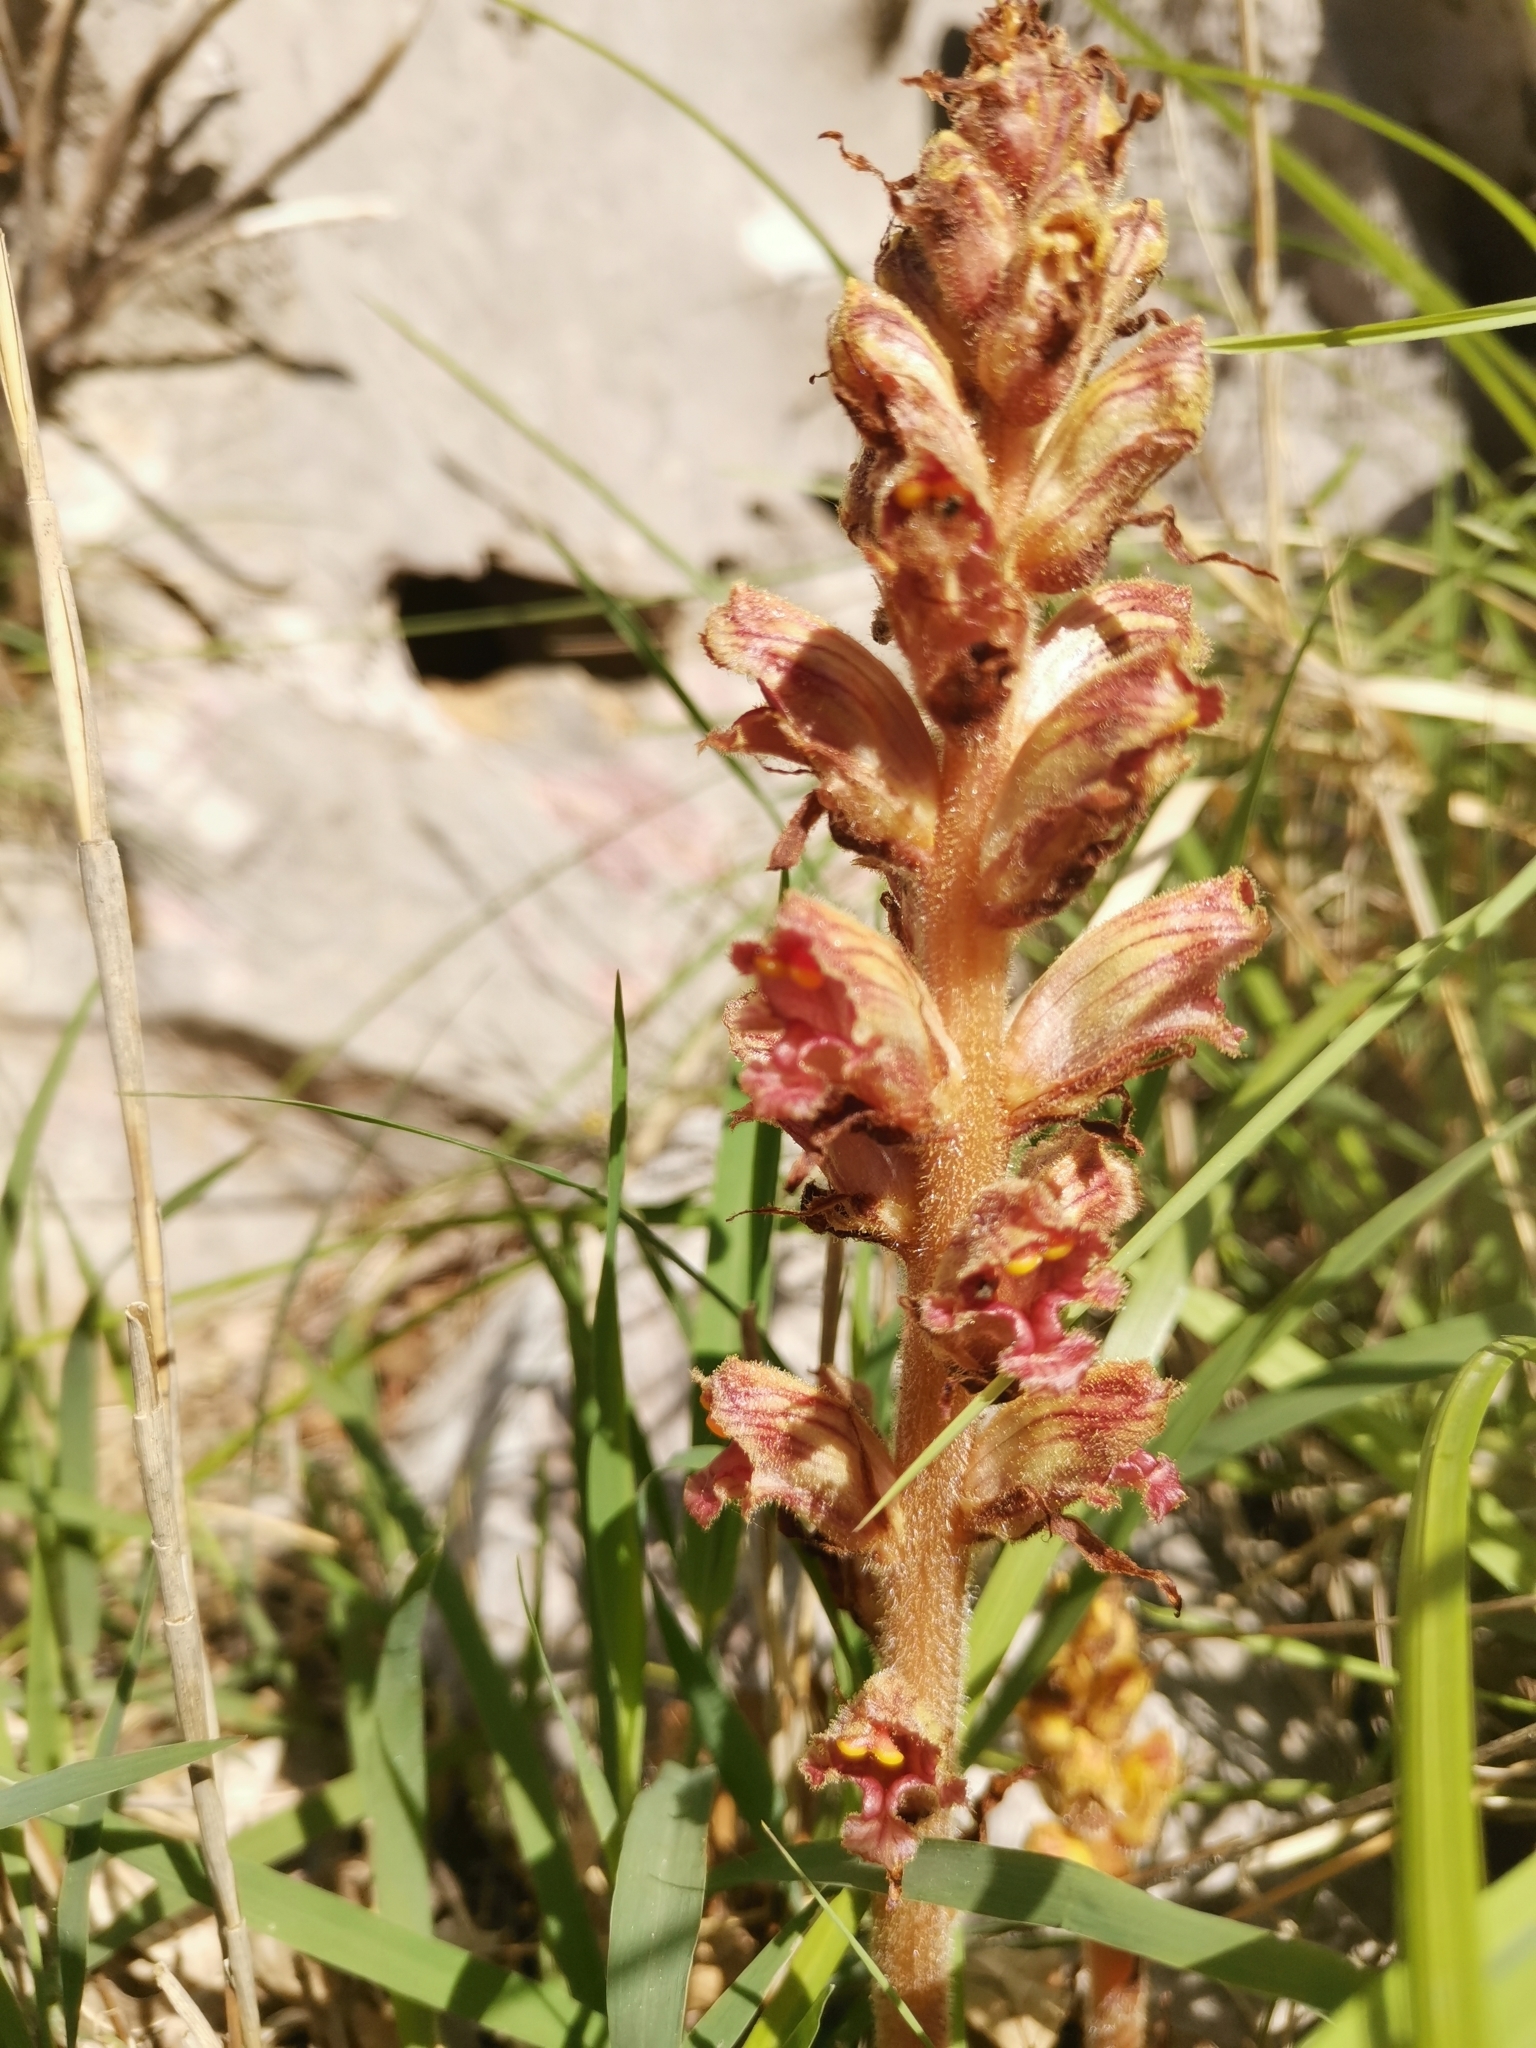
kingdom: Plantae
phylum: Tracheophyta
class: Magnoliopsida
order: Lamiales
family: Orobanchaceae
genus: Orobanche
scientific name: Orobanche gracilis
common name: Slender broomrape
